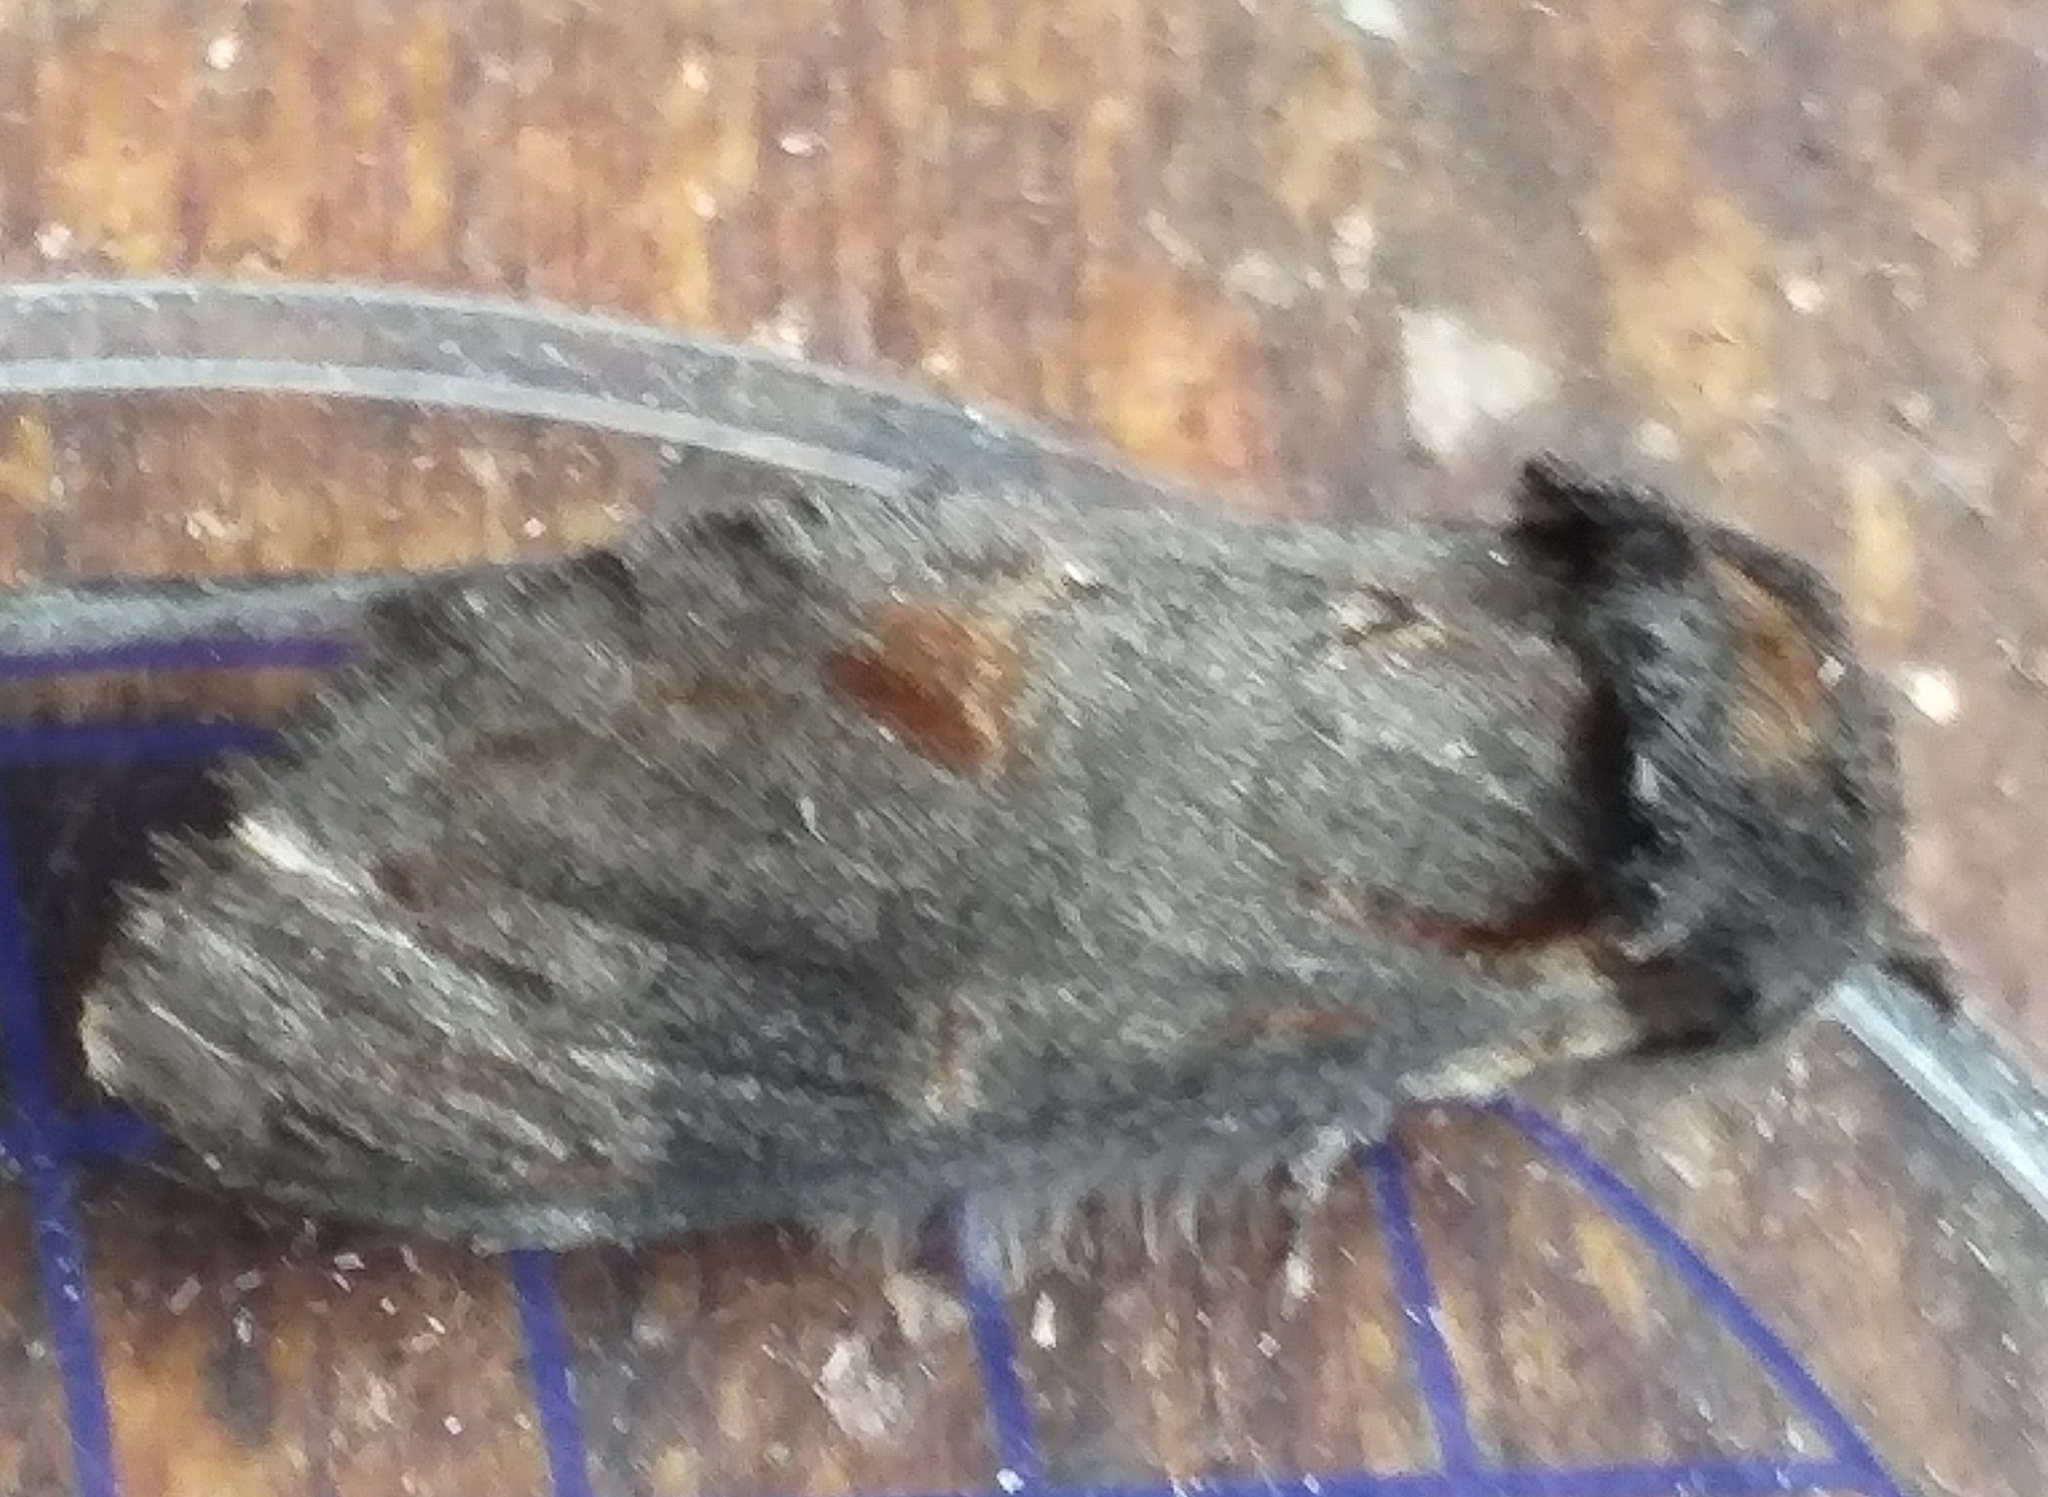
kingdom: Animalia
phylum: Arthropoda
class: Insecta
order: Lepidoptera
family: Notodontidae
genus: Notodonta
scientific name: Notodonta dromedarius
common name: Iron prominent
